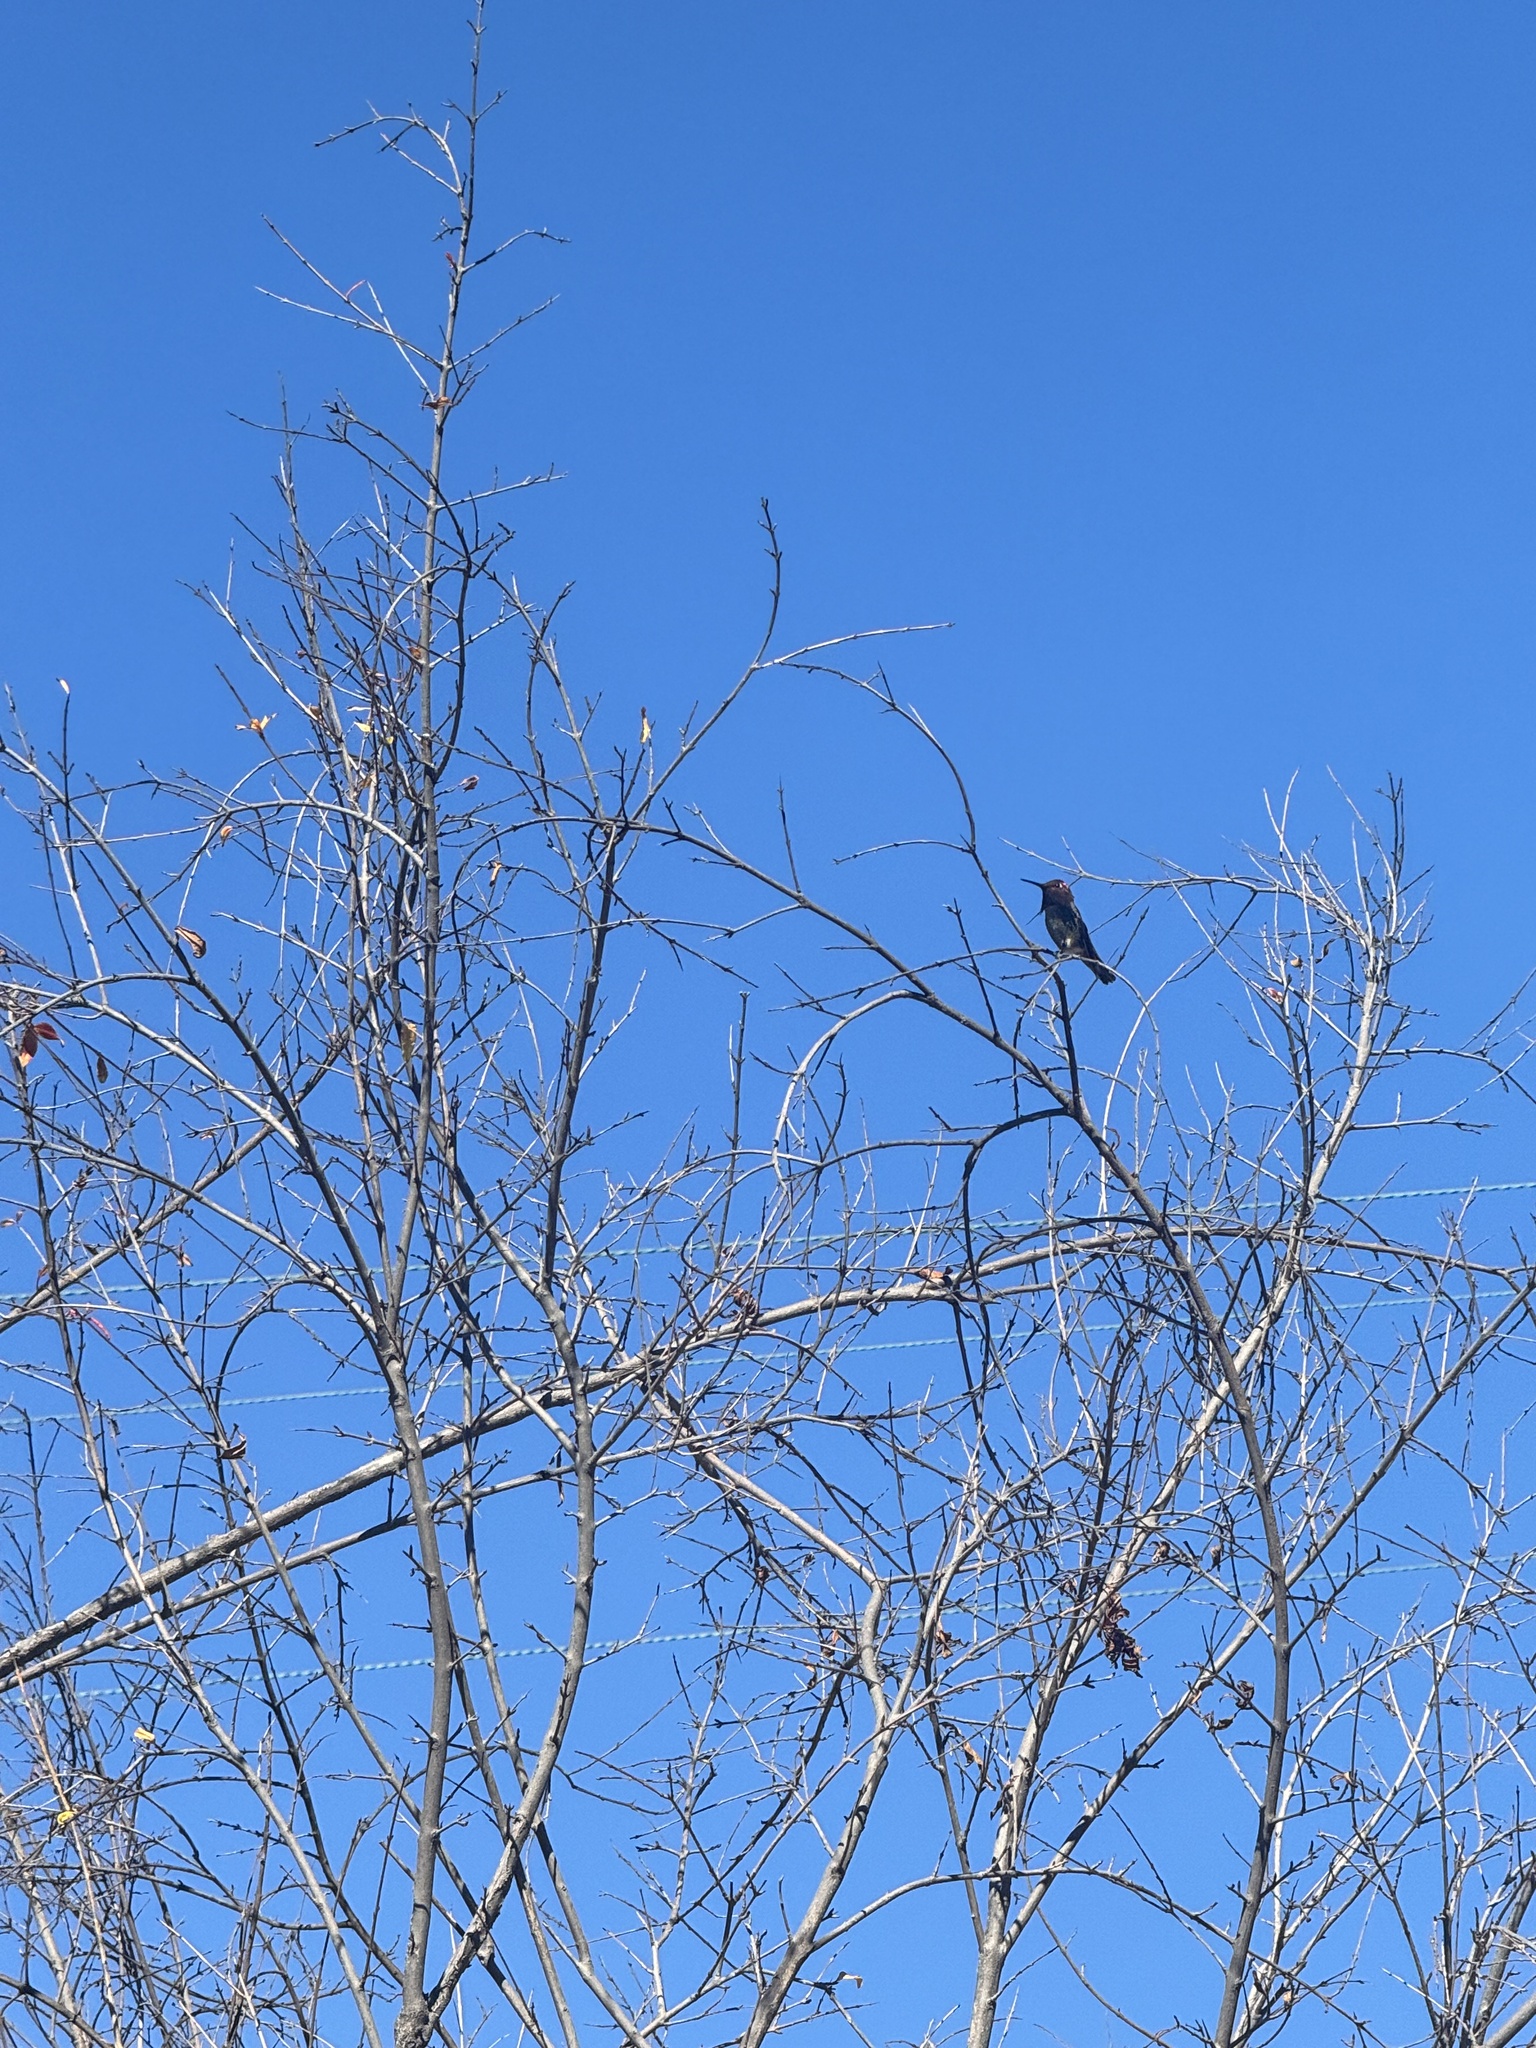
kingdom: Animalia
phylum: Chordata
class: Aves
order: Apodiformes
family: Trochilidae
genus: Calypte
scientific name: Calypte anna
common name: Anna's hummingbird
